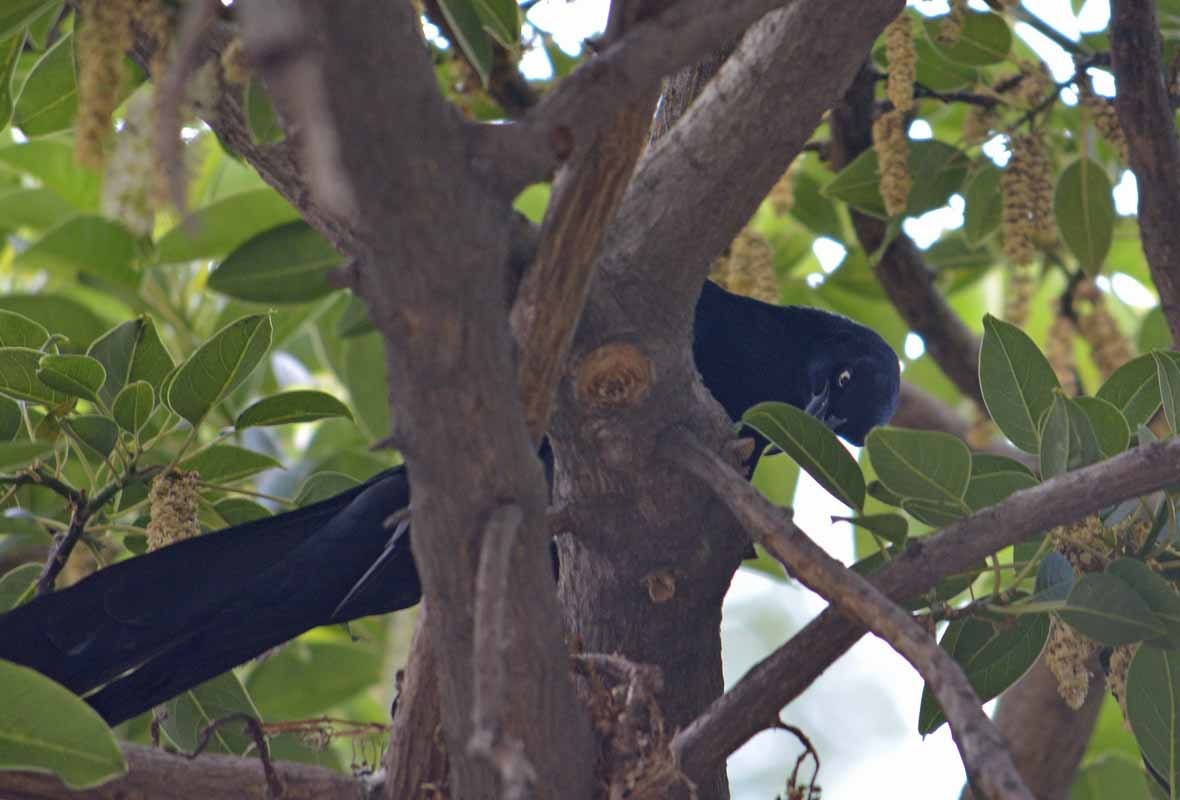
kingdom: Animalia
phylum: Chordata
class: Aves
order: Passeriformes
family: Icteridae
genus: Quiscalus
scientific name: Quiscalus mexicanus
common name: Great-tailed grackle
